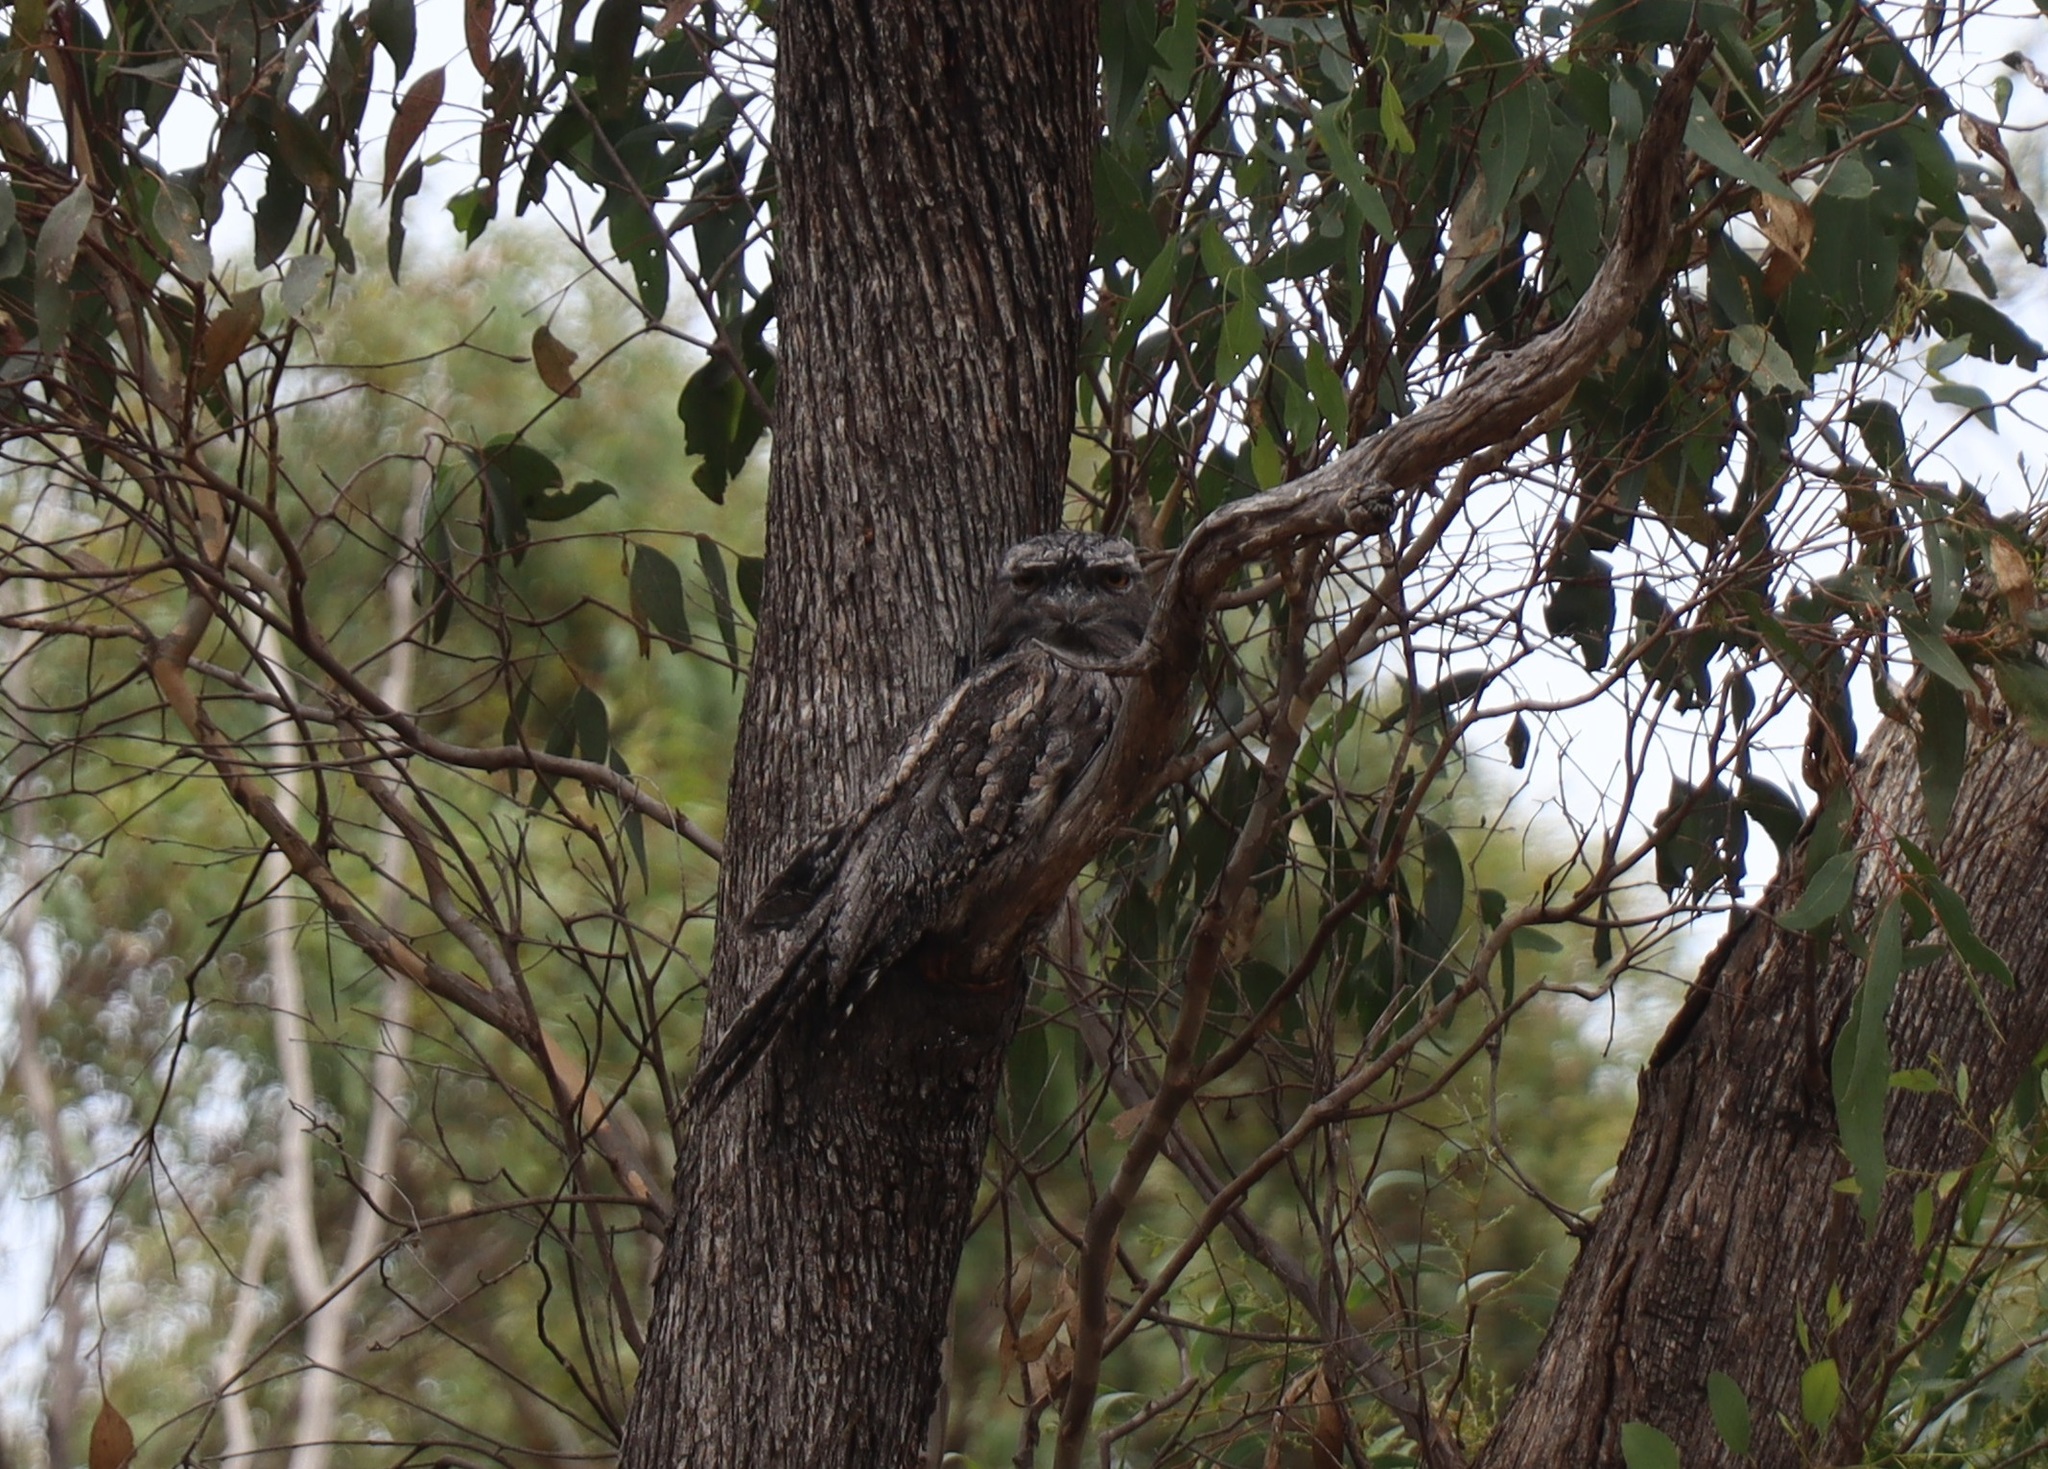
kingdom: Animalia
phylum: Chordata
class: Aves
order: Caprimulgiformes
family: Podargidae
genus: Podargus
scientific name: Podargus strigoides
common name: Tawny frogmouth
